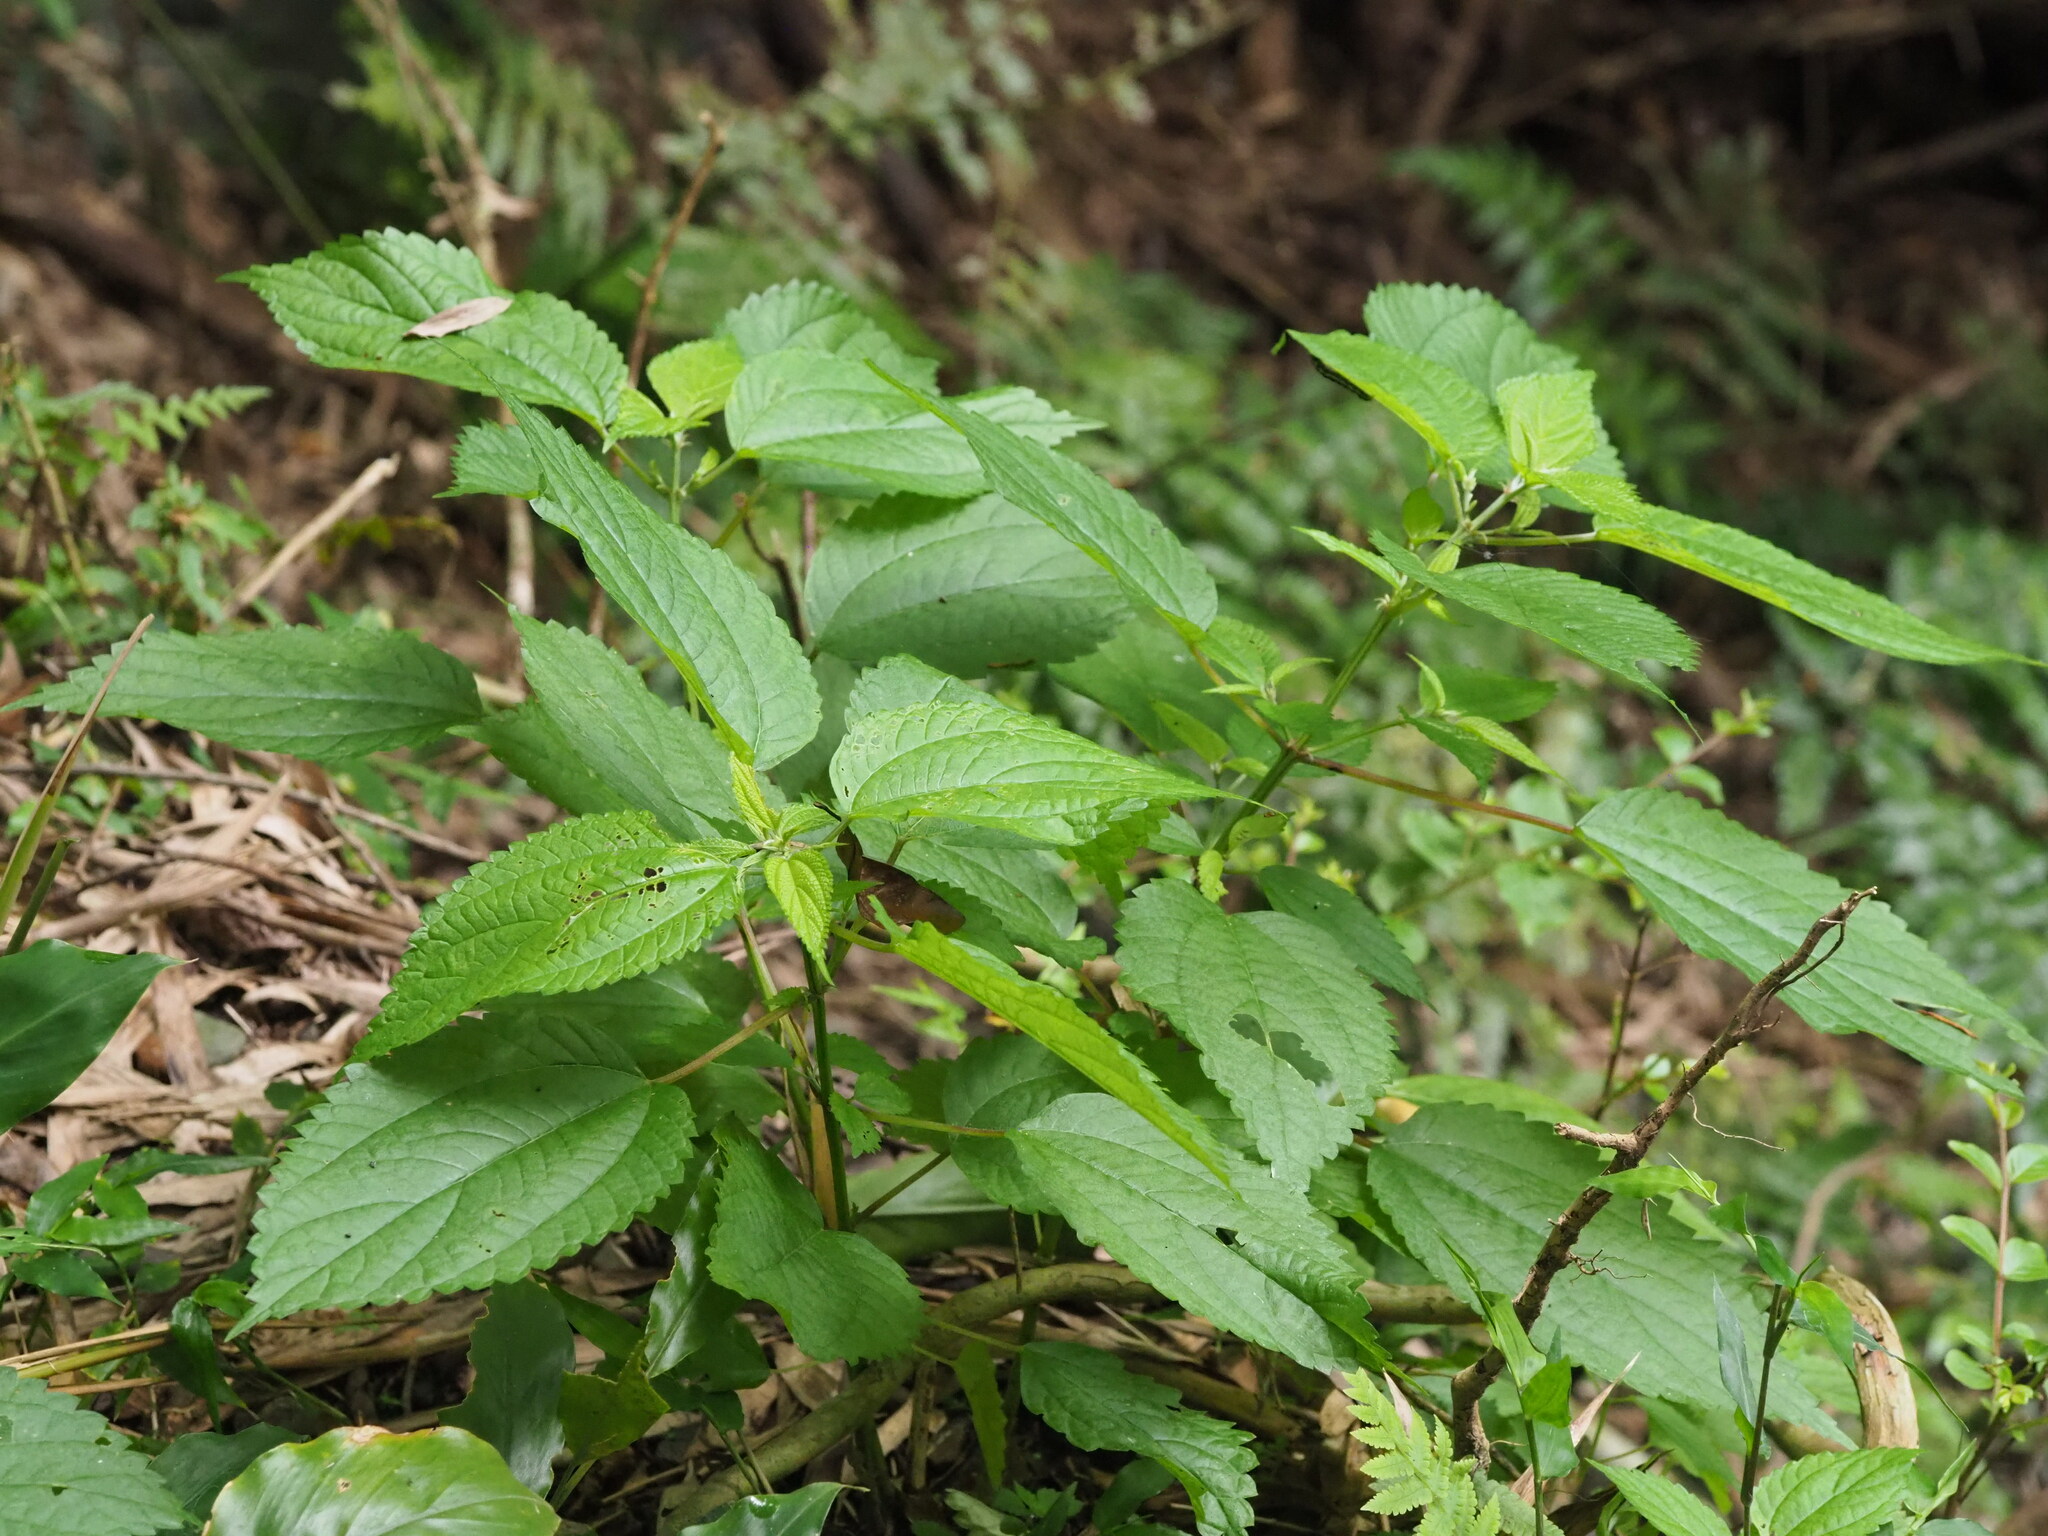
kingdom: Plantae
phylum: Tracheophyta
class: Magnoliopsida
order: Rosales
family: Urticaceae
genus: Boehmeria
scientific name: Boehmeria sieboldiana
